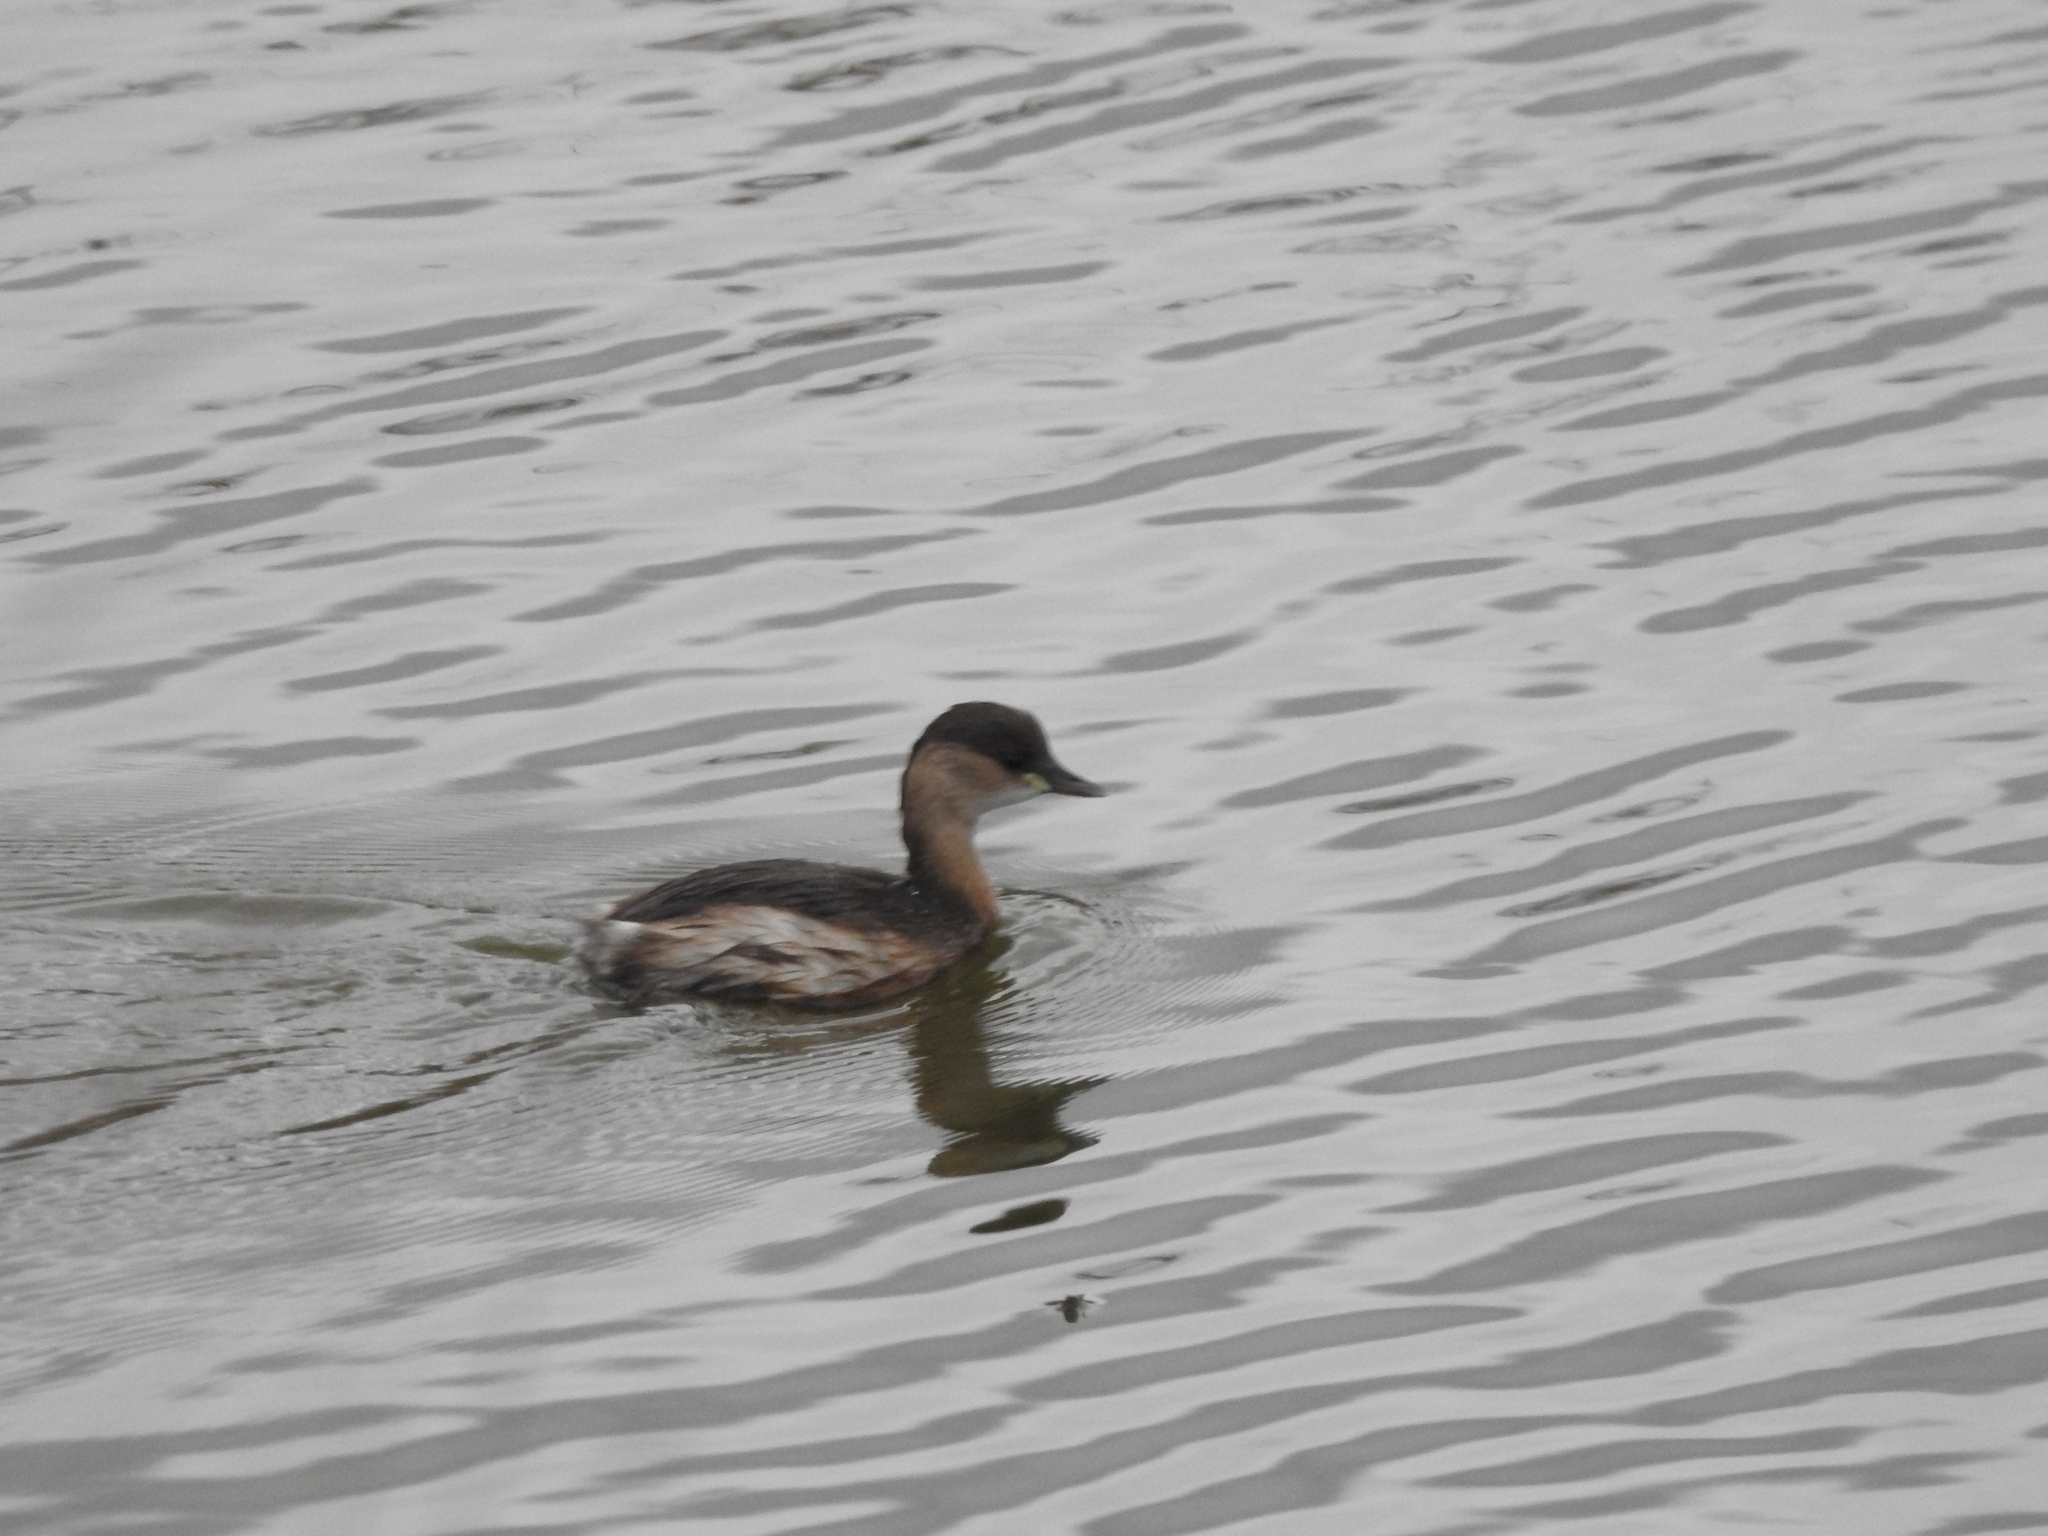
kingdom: Animalia
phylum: Chordata
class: Aves
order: Podicipediformes
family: Podicipedidae
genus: Tachybaptus
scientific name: Tachybaptus ruficollis
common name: Little grebe
